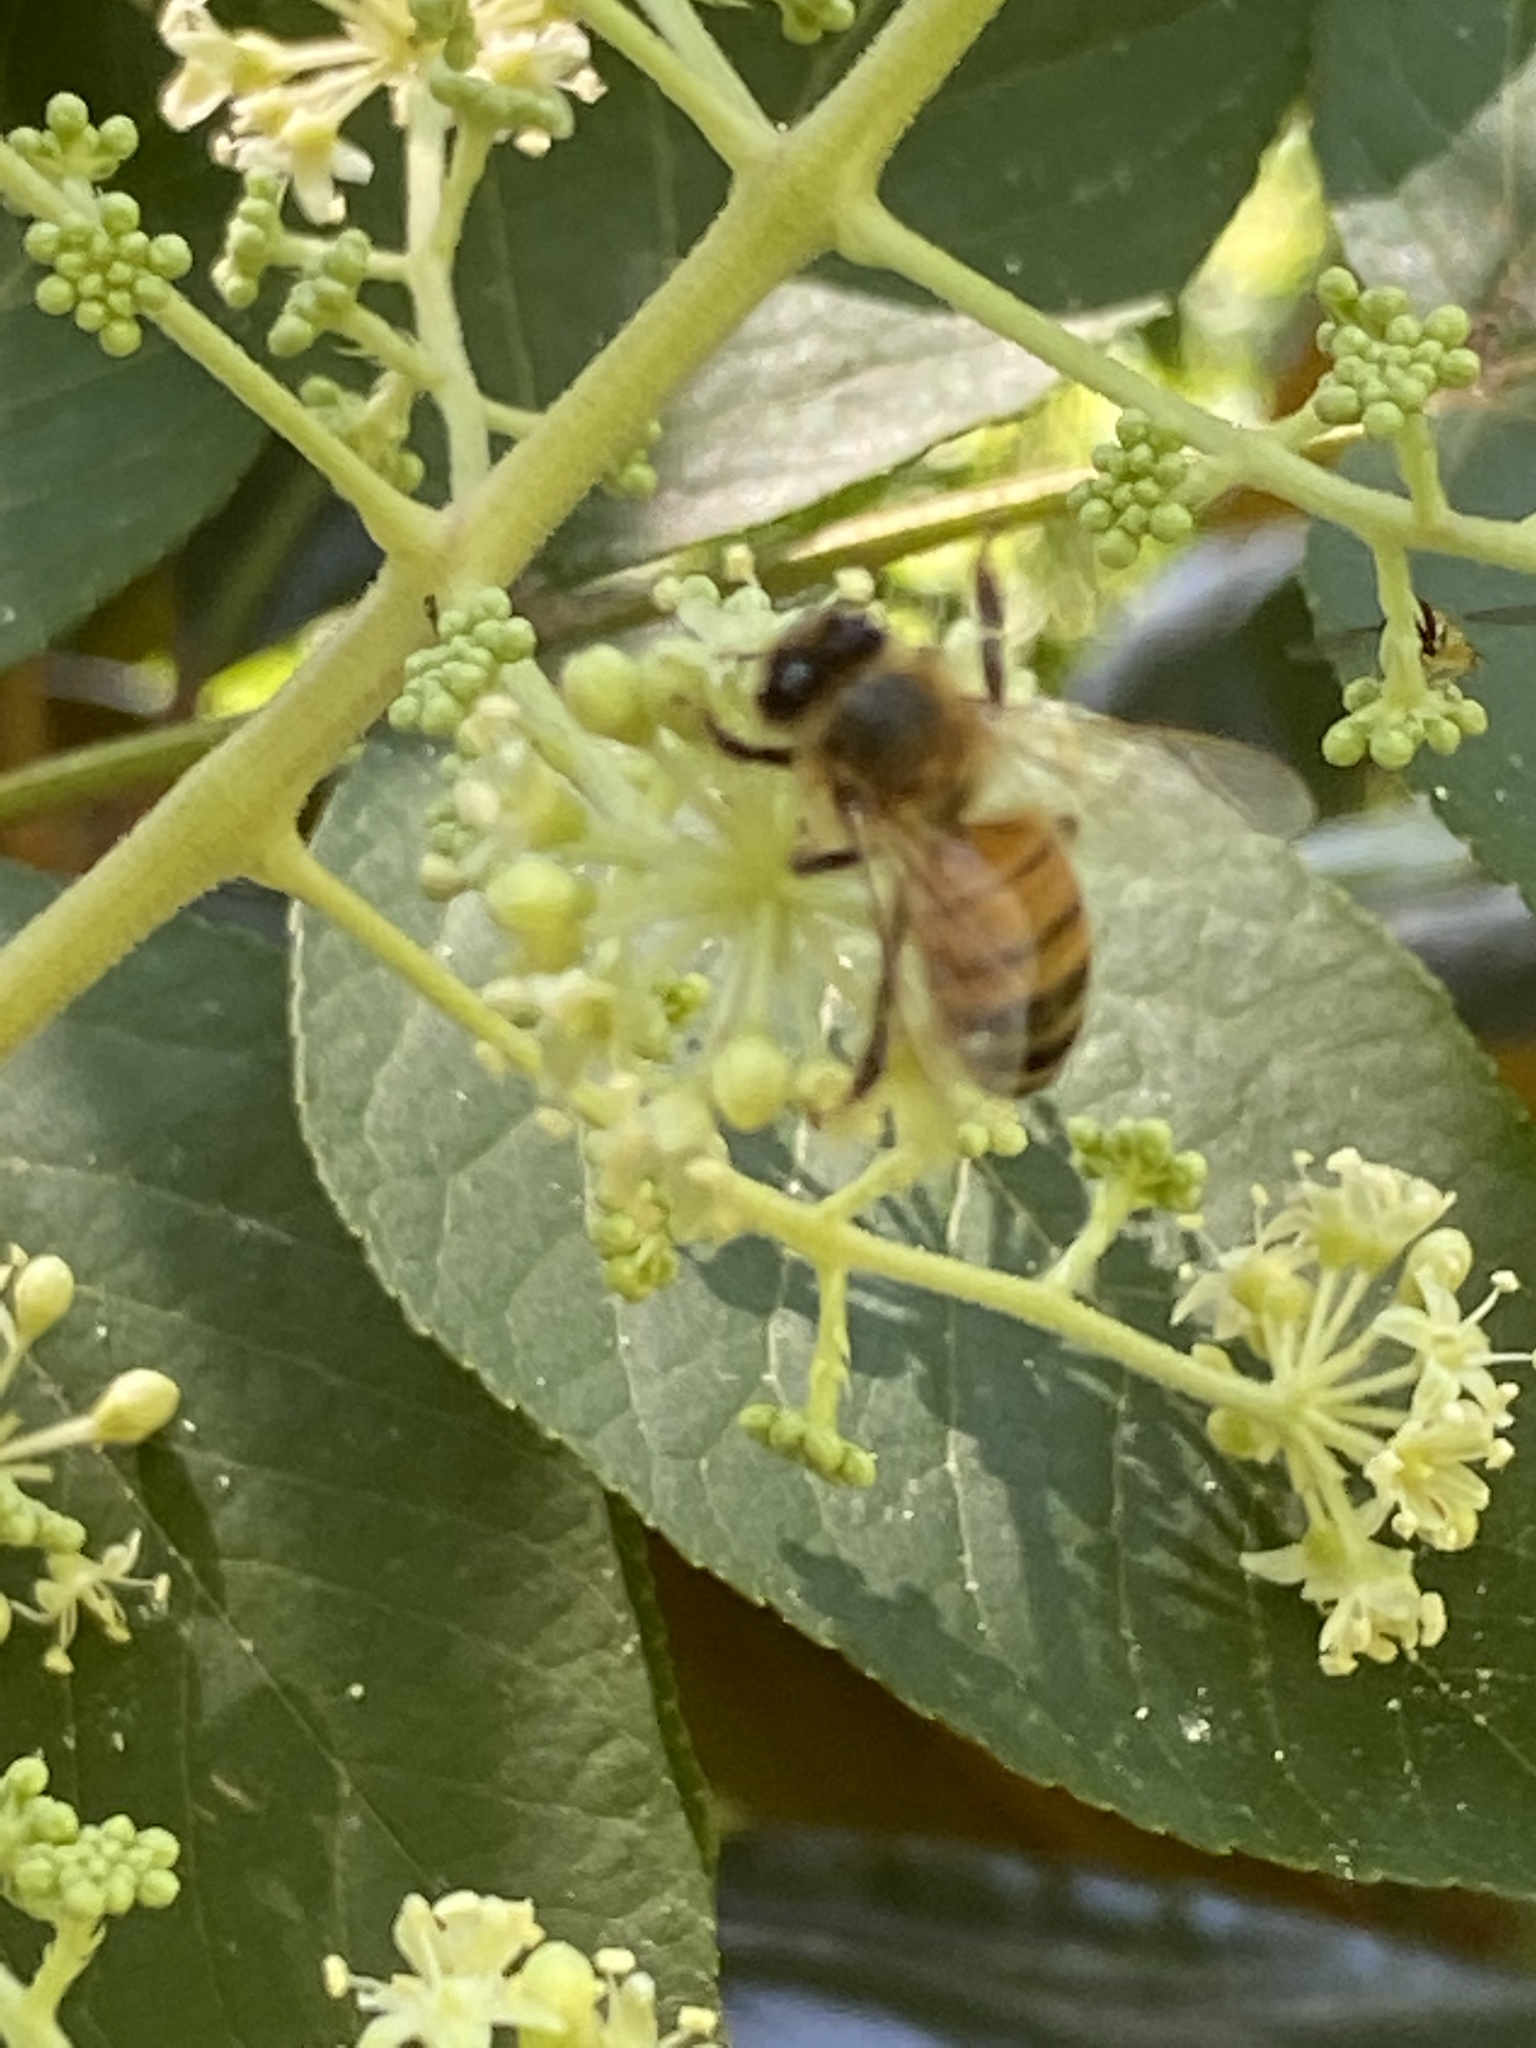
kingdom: Animalia
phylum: Arthropoda
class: Insecta
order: Hymenoptera
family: Apidae
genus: Apis
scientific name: Apis mellifera
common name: Honey bee
